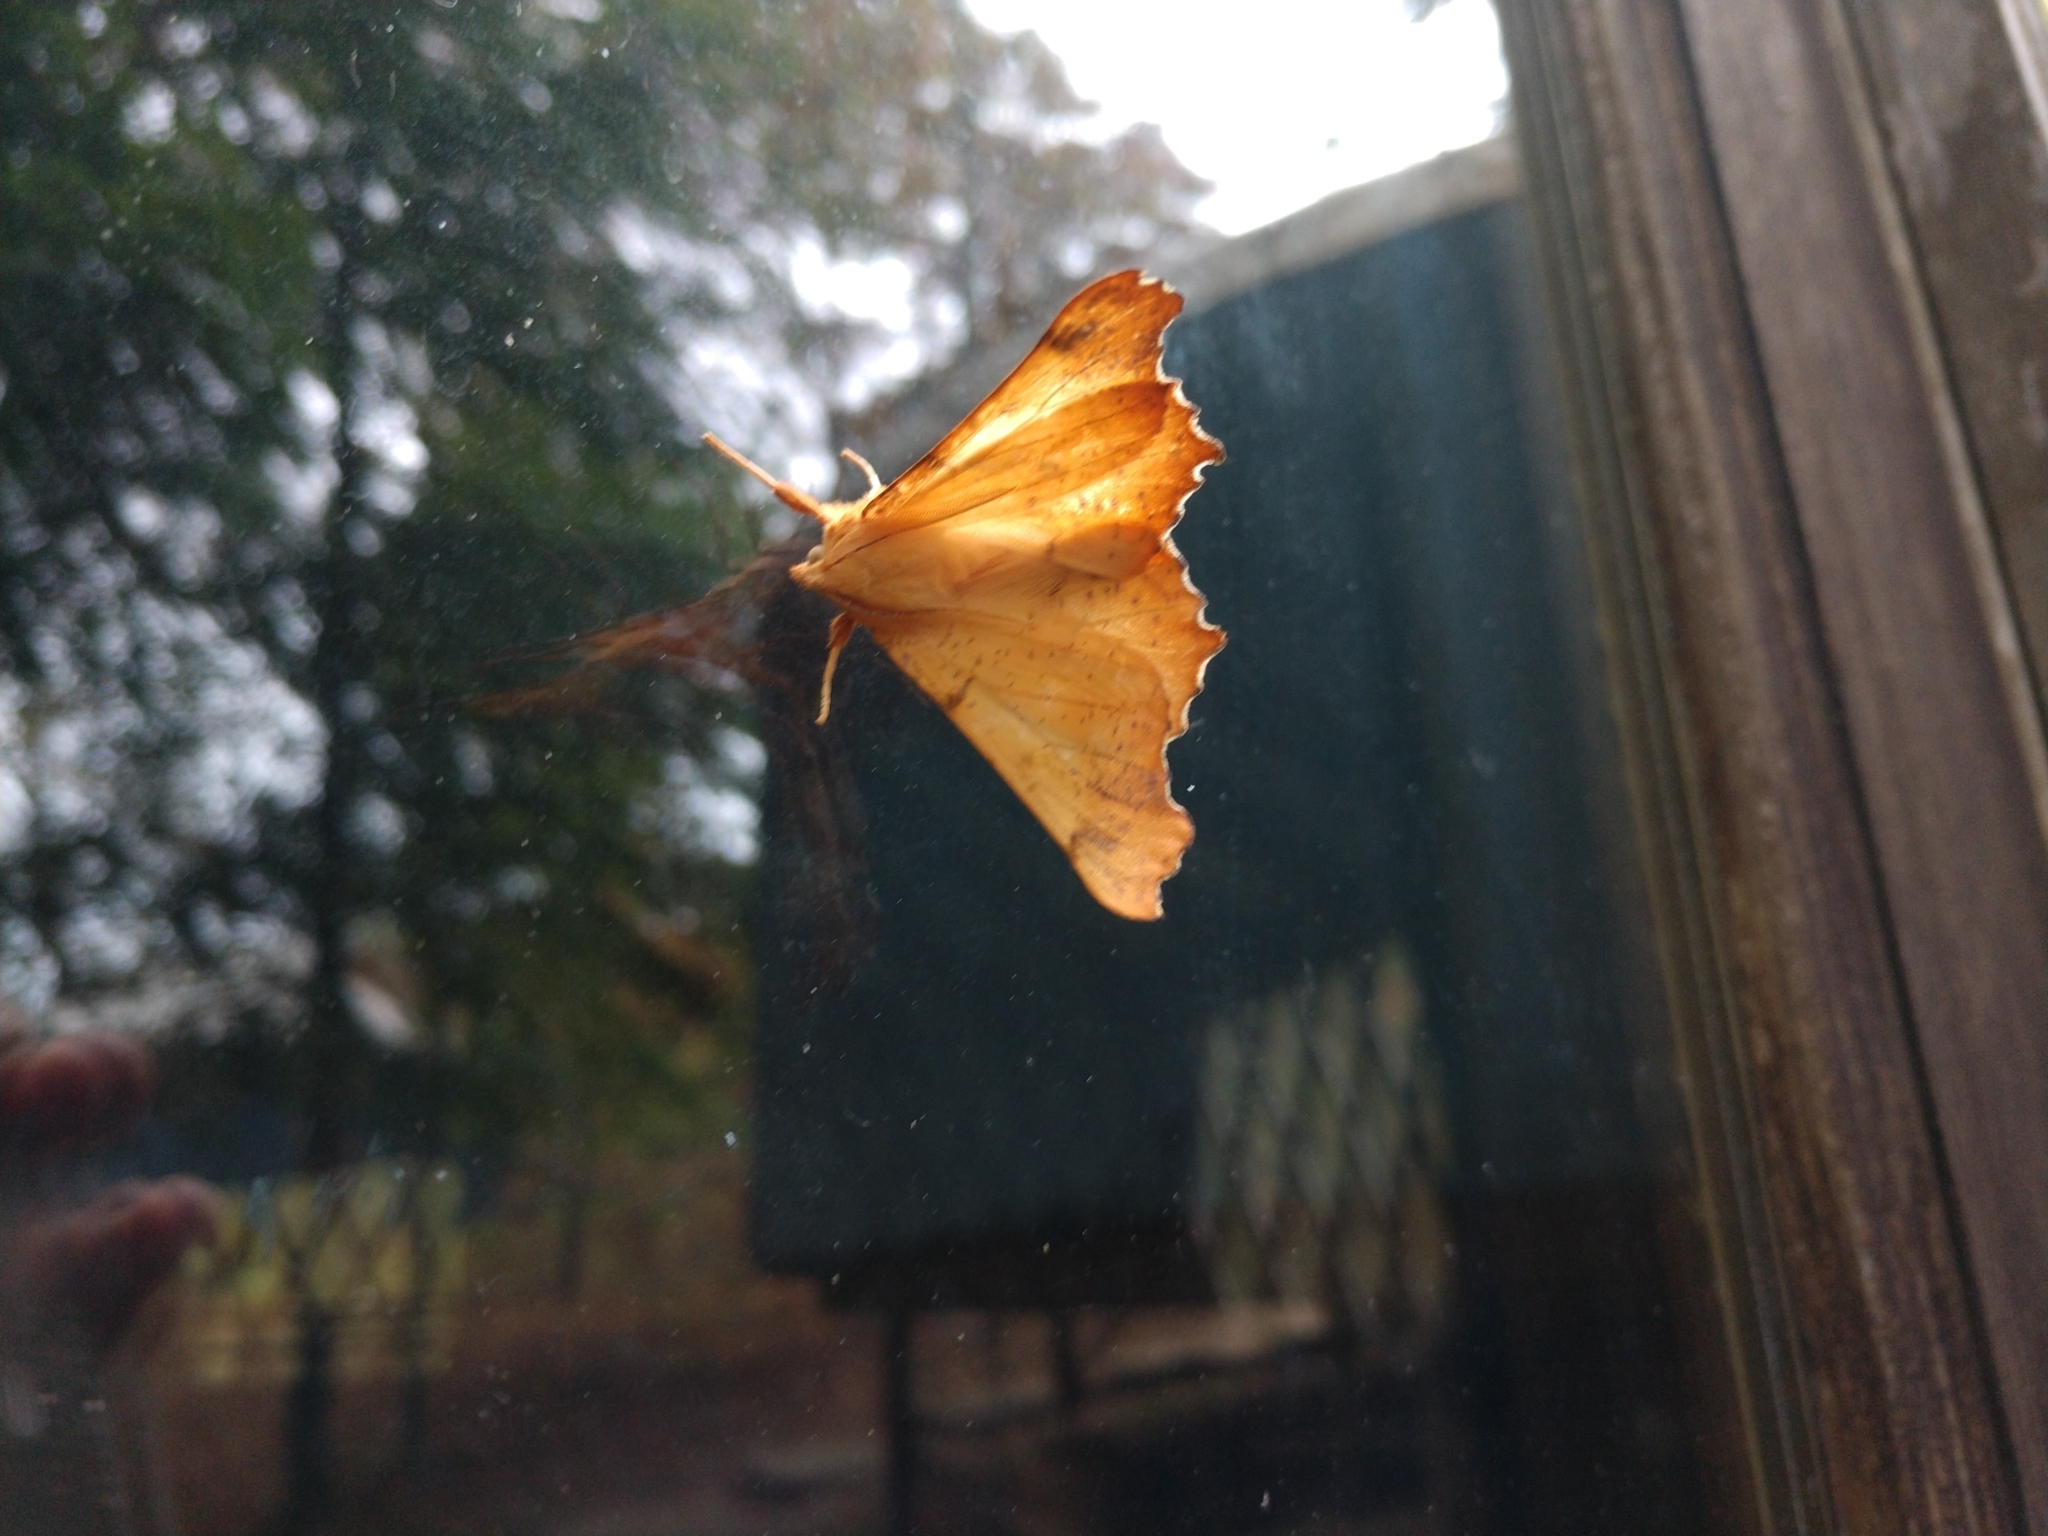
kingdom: Animalia
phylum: Arthropoda
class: Insecta
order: Lepidoptera
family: Geometridae
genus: Ennomos
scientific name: Ennomos magnaria
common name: Maple spanworm
